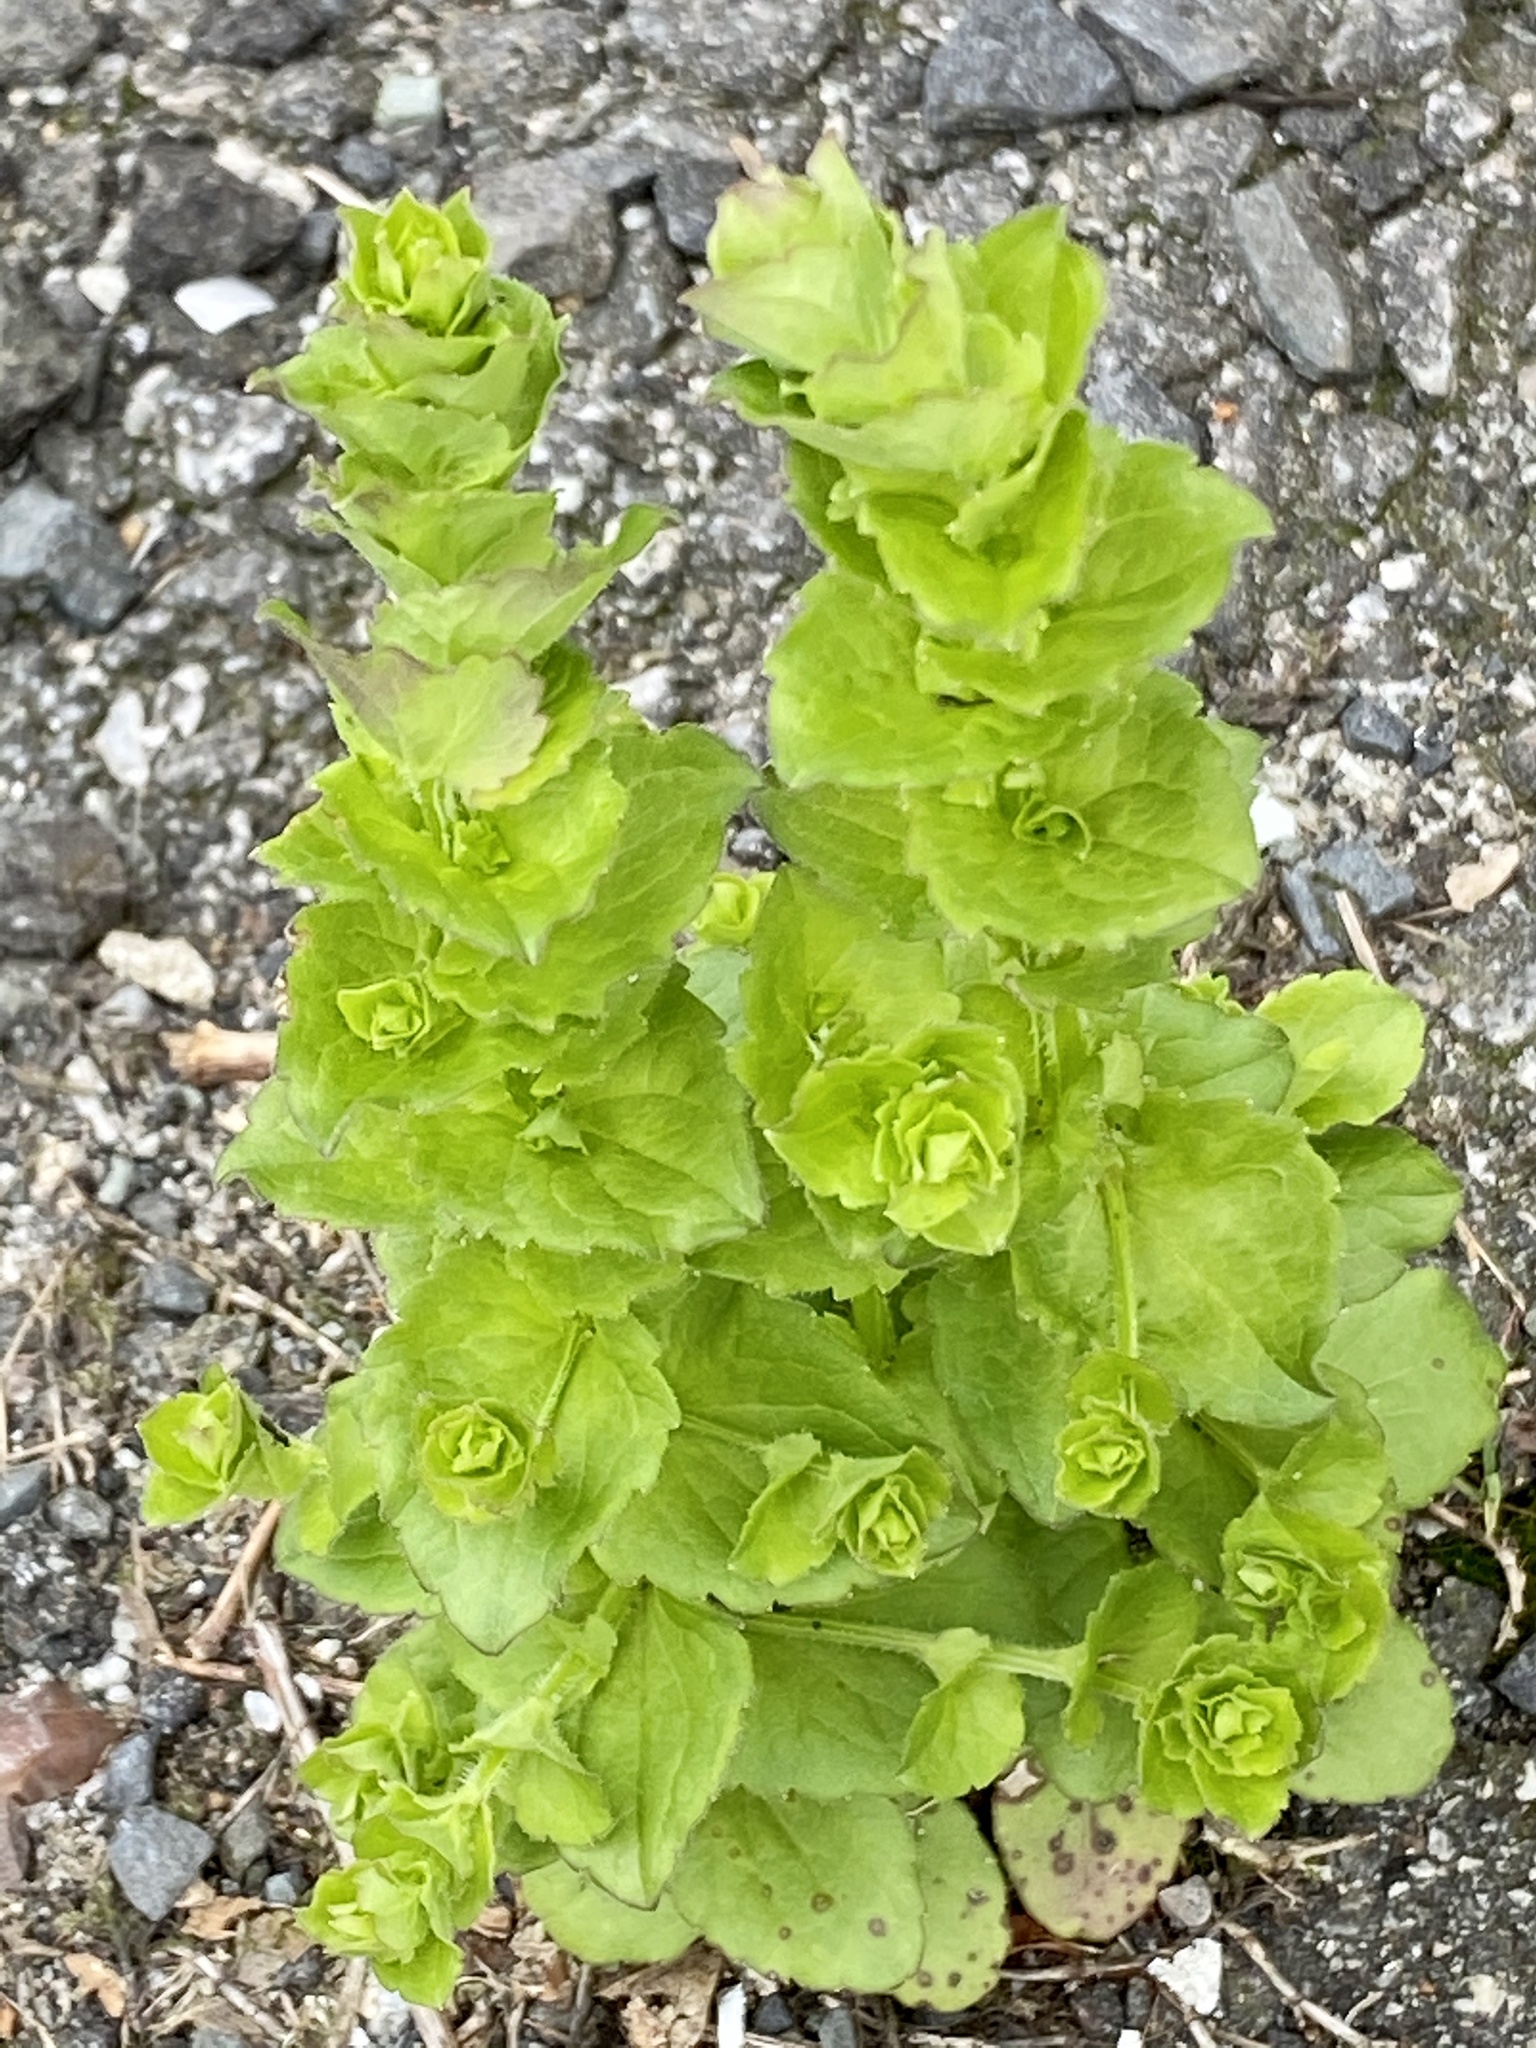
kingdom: Plantae
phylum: Tracheophyta
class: Magnoliopsida
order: Asterales
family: Campanulaceae
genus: Triodanis
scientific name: Triodanis perfoliata
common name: Clasping venus' looking-glass
